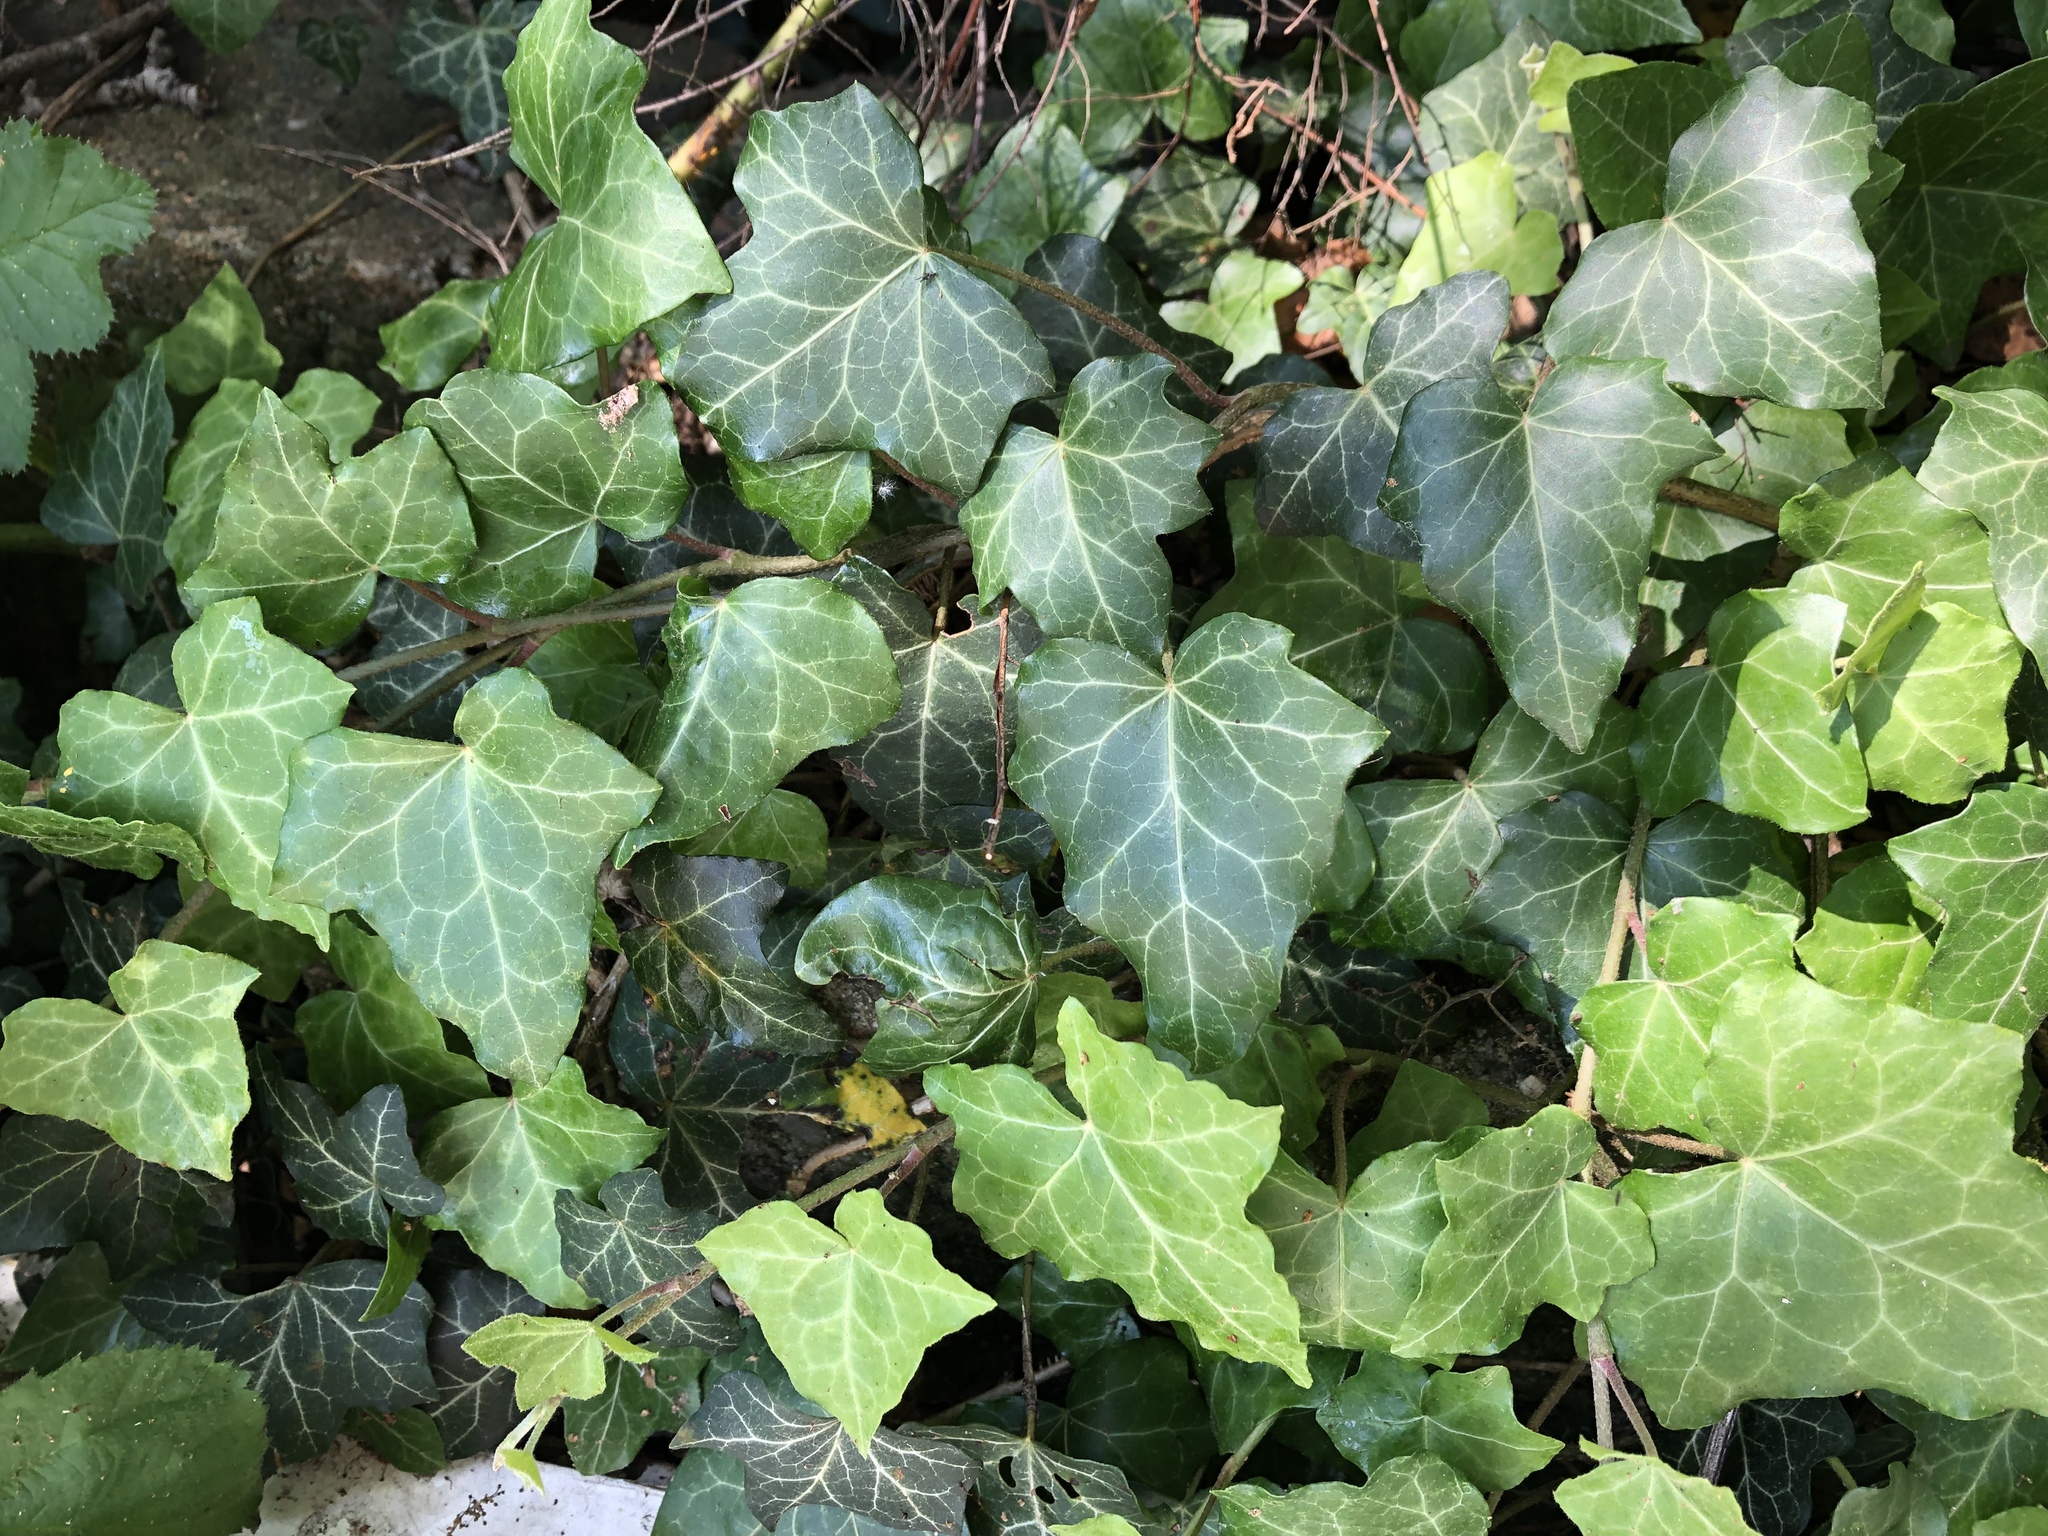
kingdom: Plantae
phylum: Tracheophyta
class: Magnoliopsida
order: Apiales
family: Araliaceae
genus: Hedera
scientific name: Hedera helix
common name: Ivy
